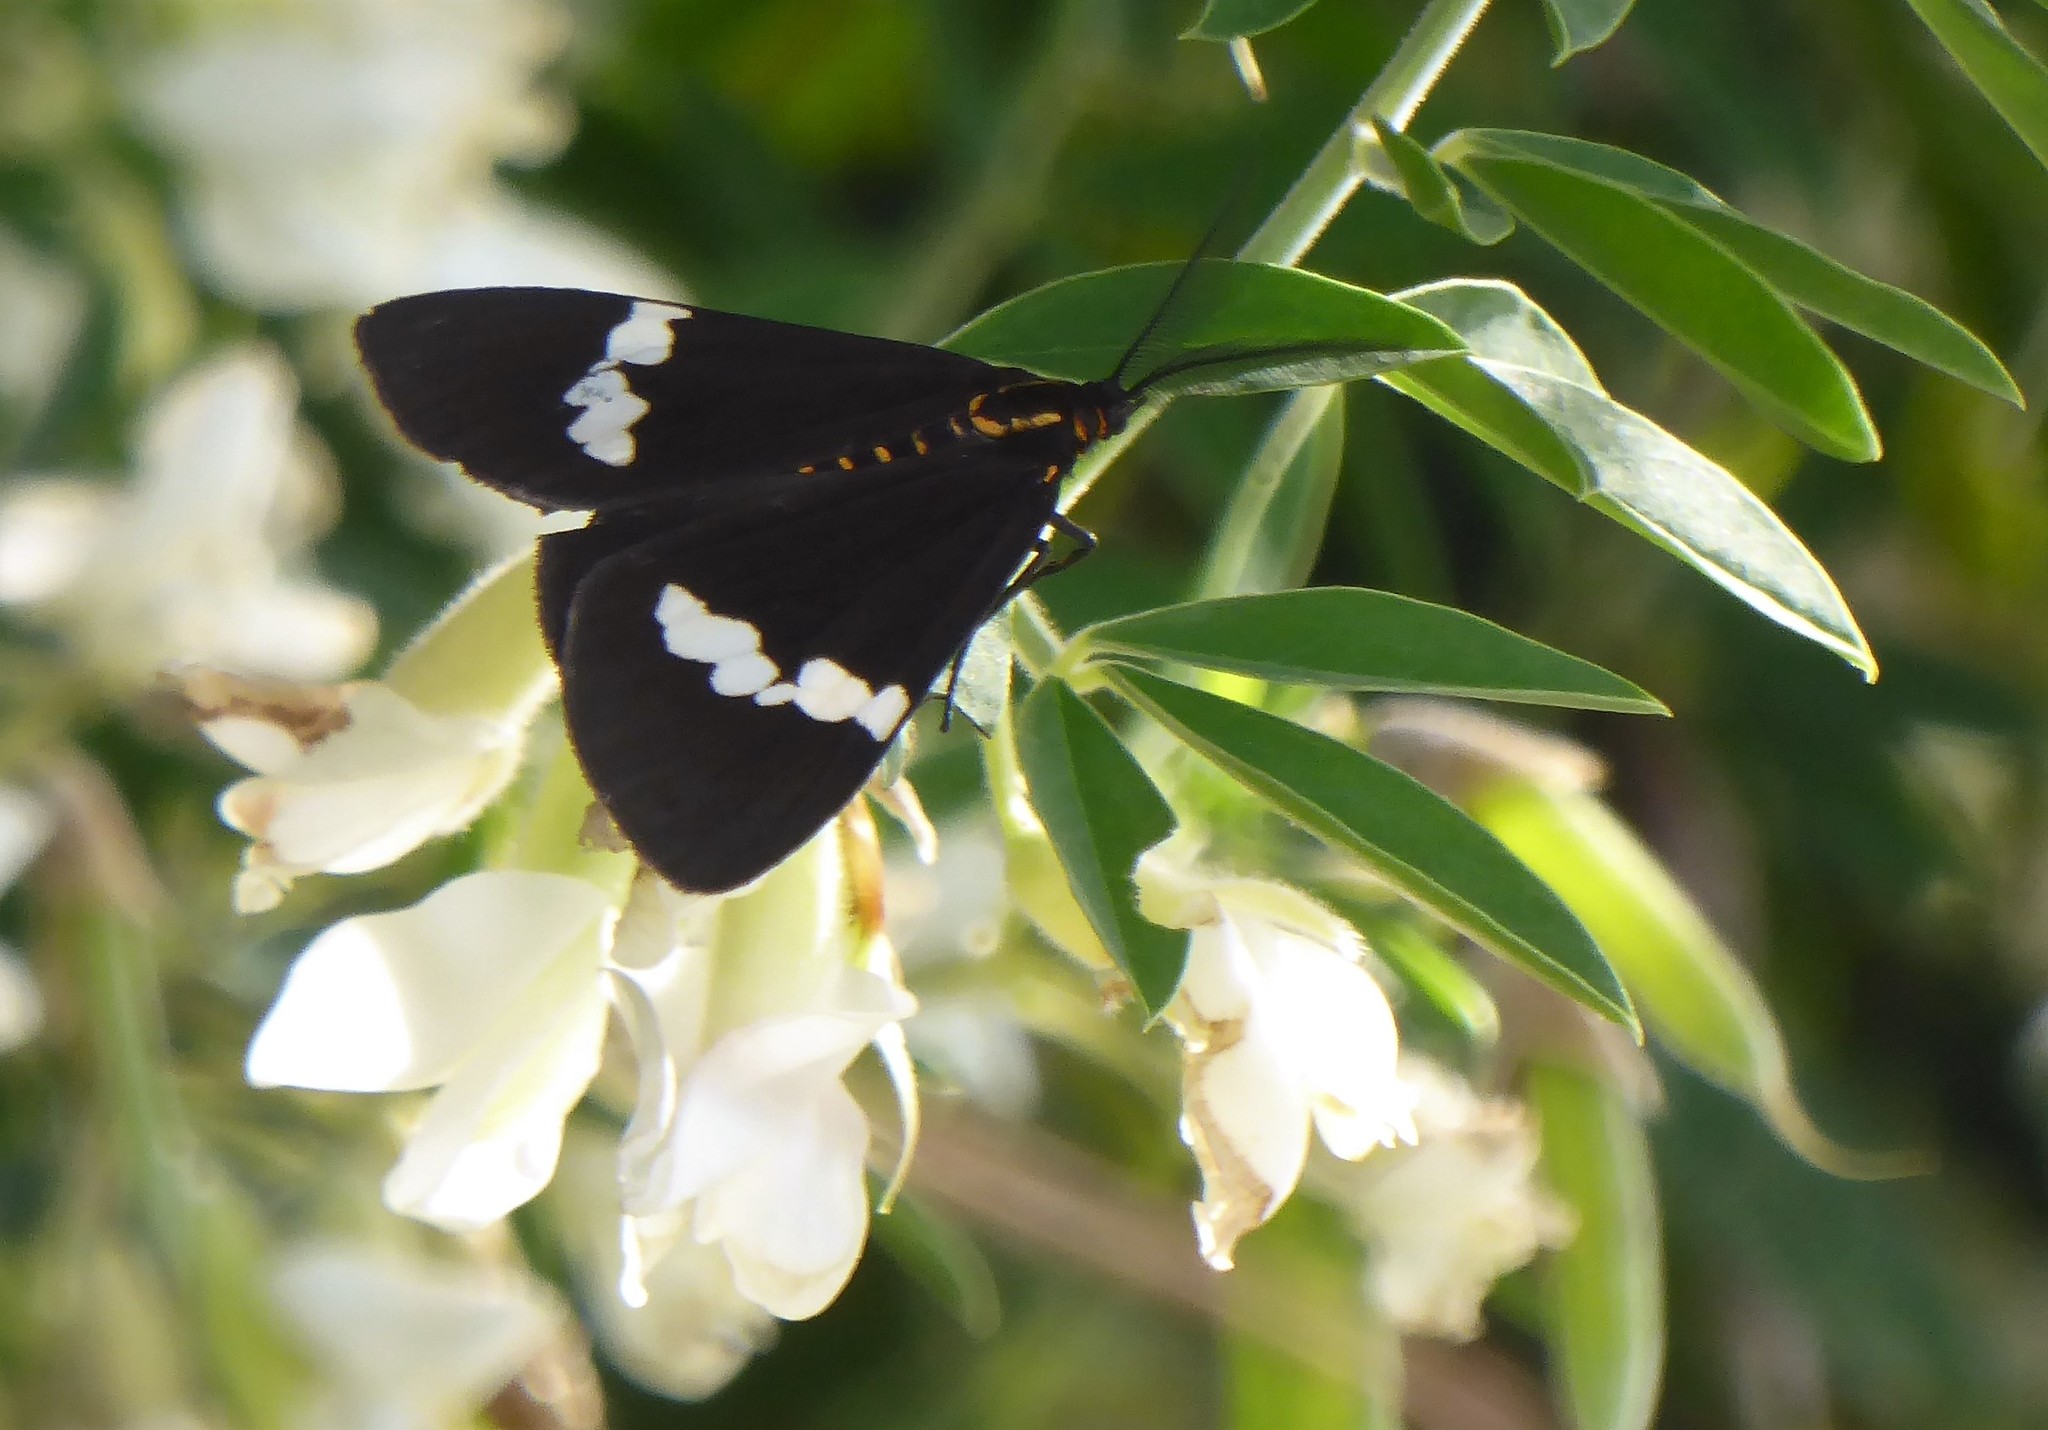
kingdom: Animalia
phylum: Arthropoda
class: Insecta
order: Lepidoptera
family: Erebidae
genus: Nyctemera
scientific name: Nyctemera annulatum
